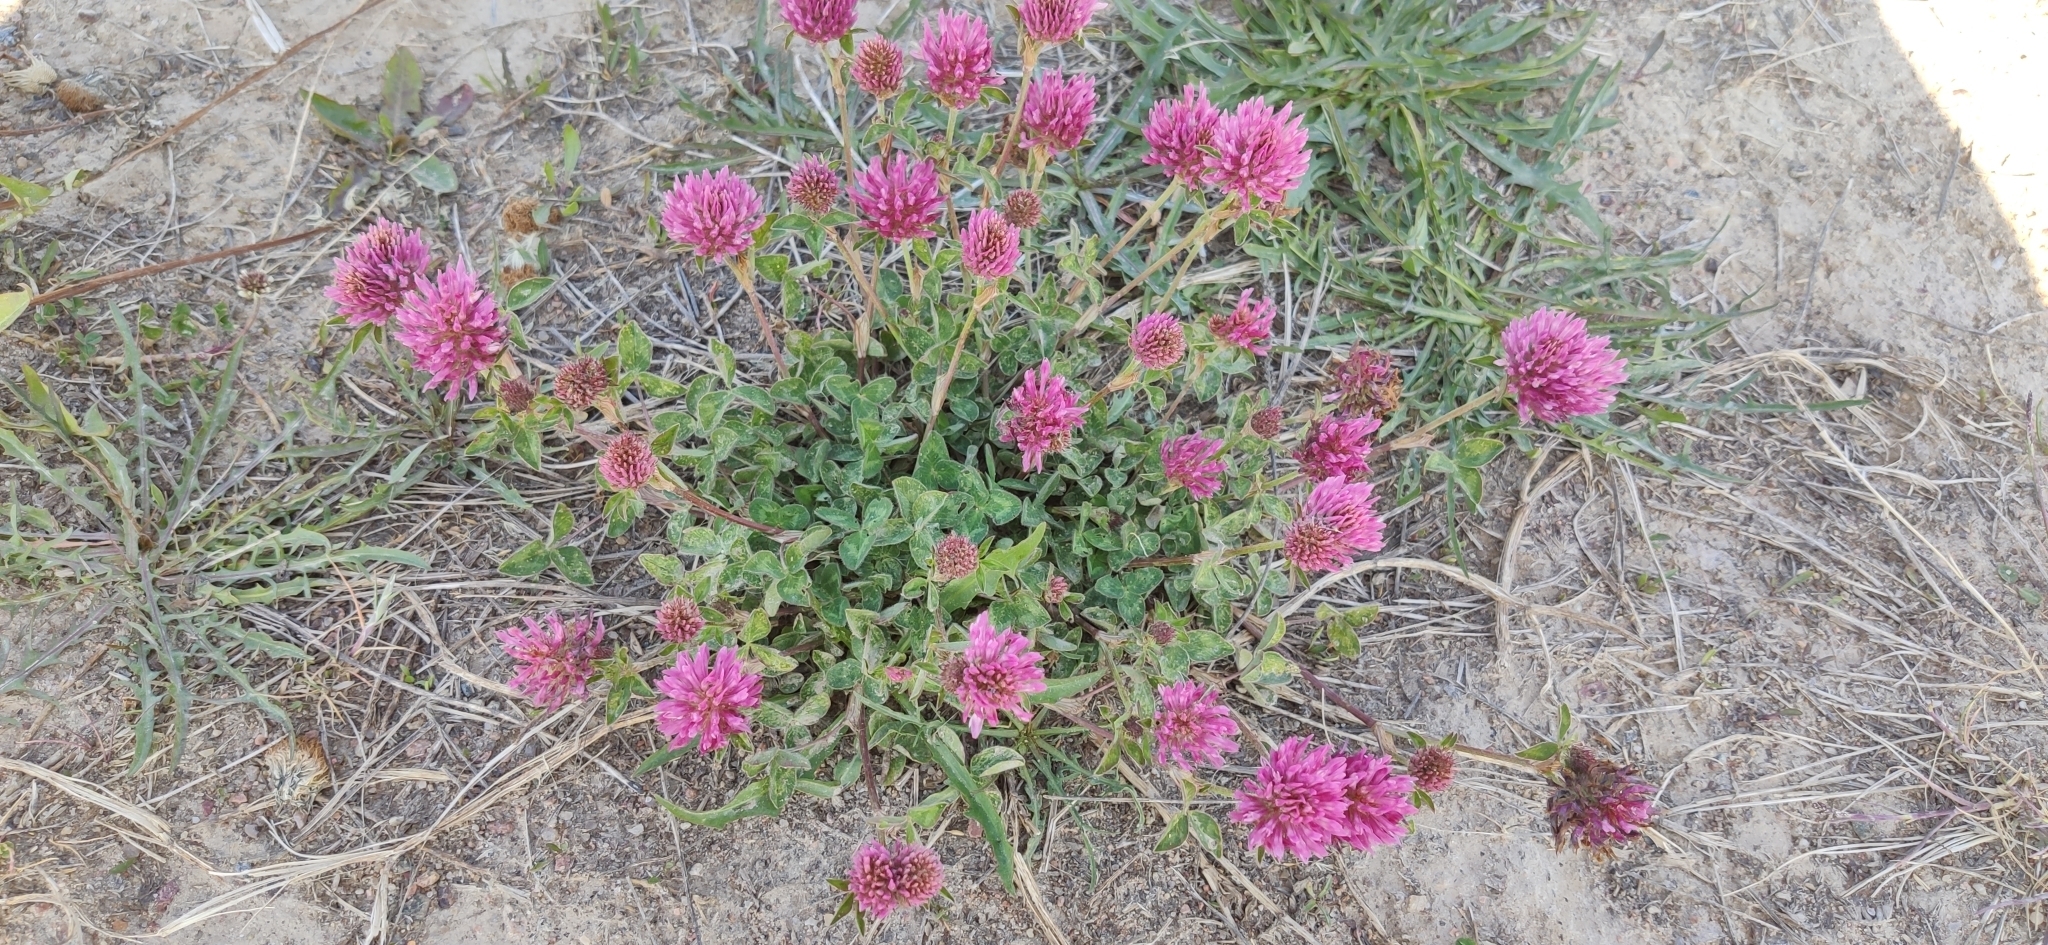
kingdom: Plantae
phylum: Tracheophyta
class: Magnoliopsida
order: Fabales
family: Fabaceae
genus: Trifolium
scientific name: Trifolium pratense
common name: Red clover
